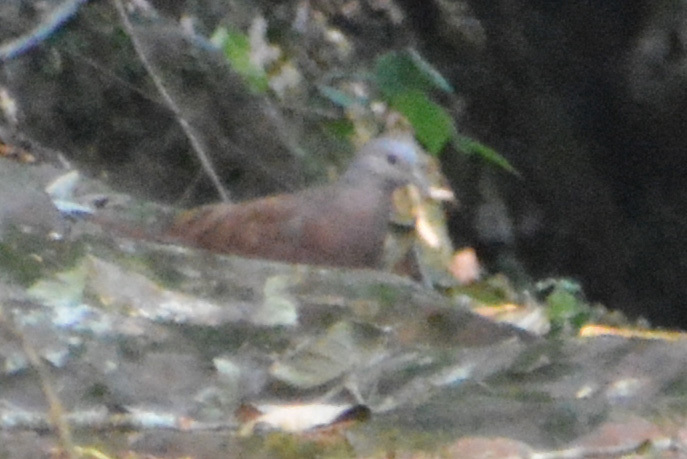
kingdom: Animalia
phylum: Chordata
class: Aves
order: Columbiformes
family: Columbidae
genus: Columbina
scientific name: Columbina talpacoti
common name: Ruddy ground dove
